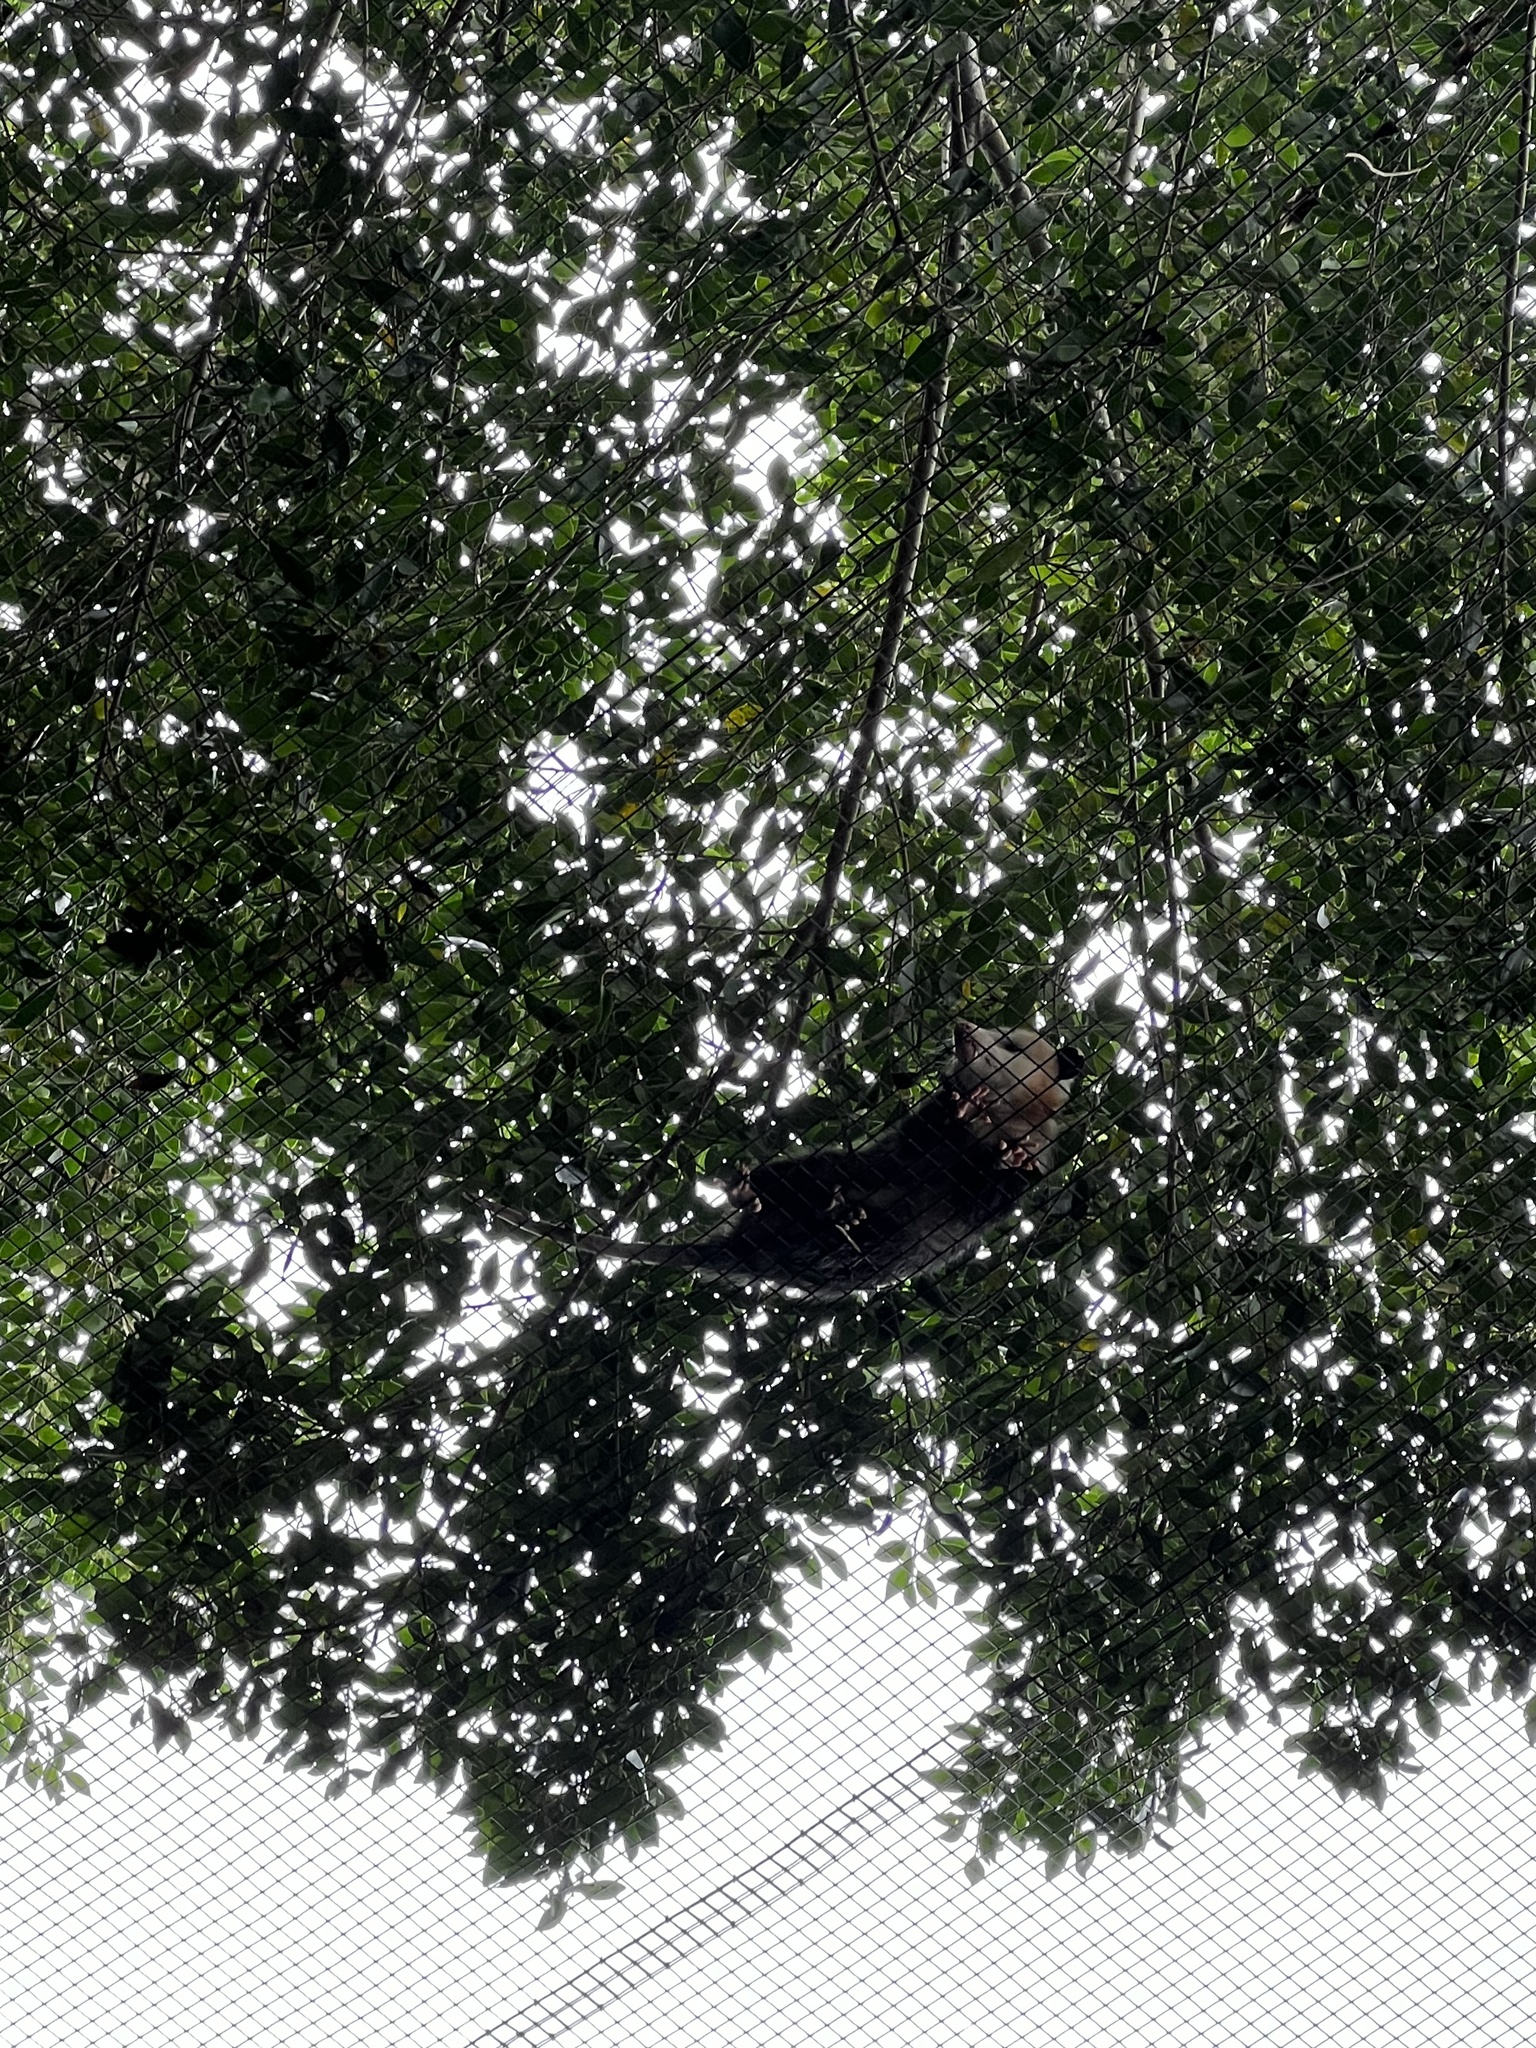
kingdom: Animalia
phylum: Chordata
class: Mammalia
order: Didelphimorphia
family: Didelphidae
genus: Didelphis
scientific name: Didelphis virginiana
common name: Virginia opossum
